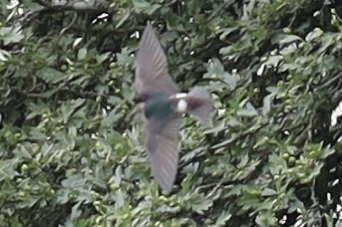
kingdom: Animalia
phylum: Chordata
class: Aves
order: Passeriformes
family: Hirundinidae
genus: Tachycineta
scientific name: Tachycineta thalassina
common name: Violet-green swallow
